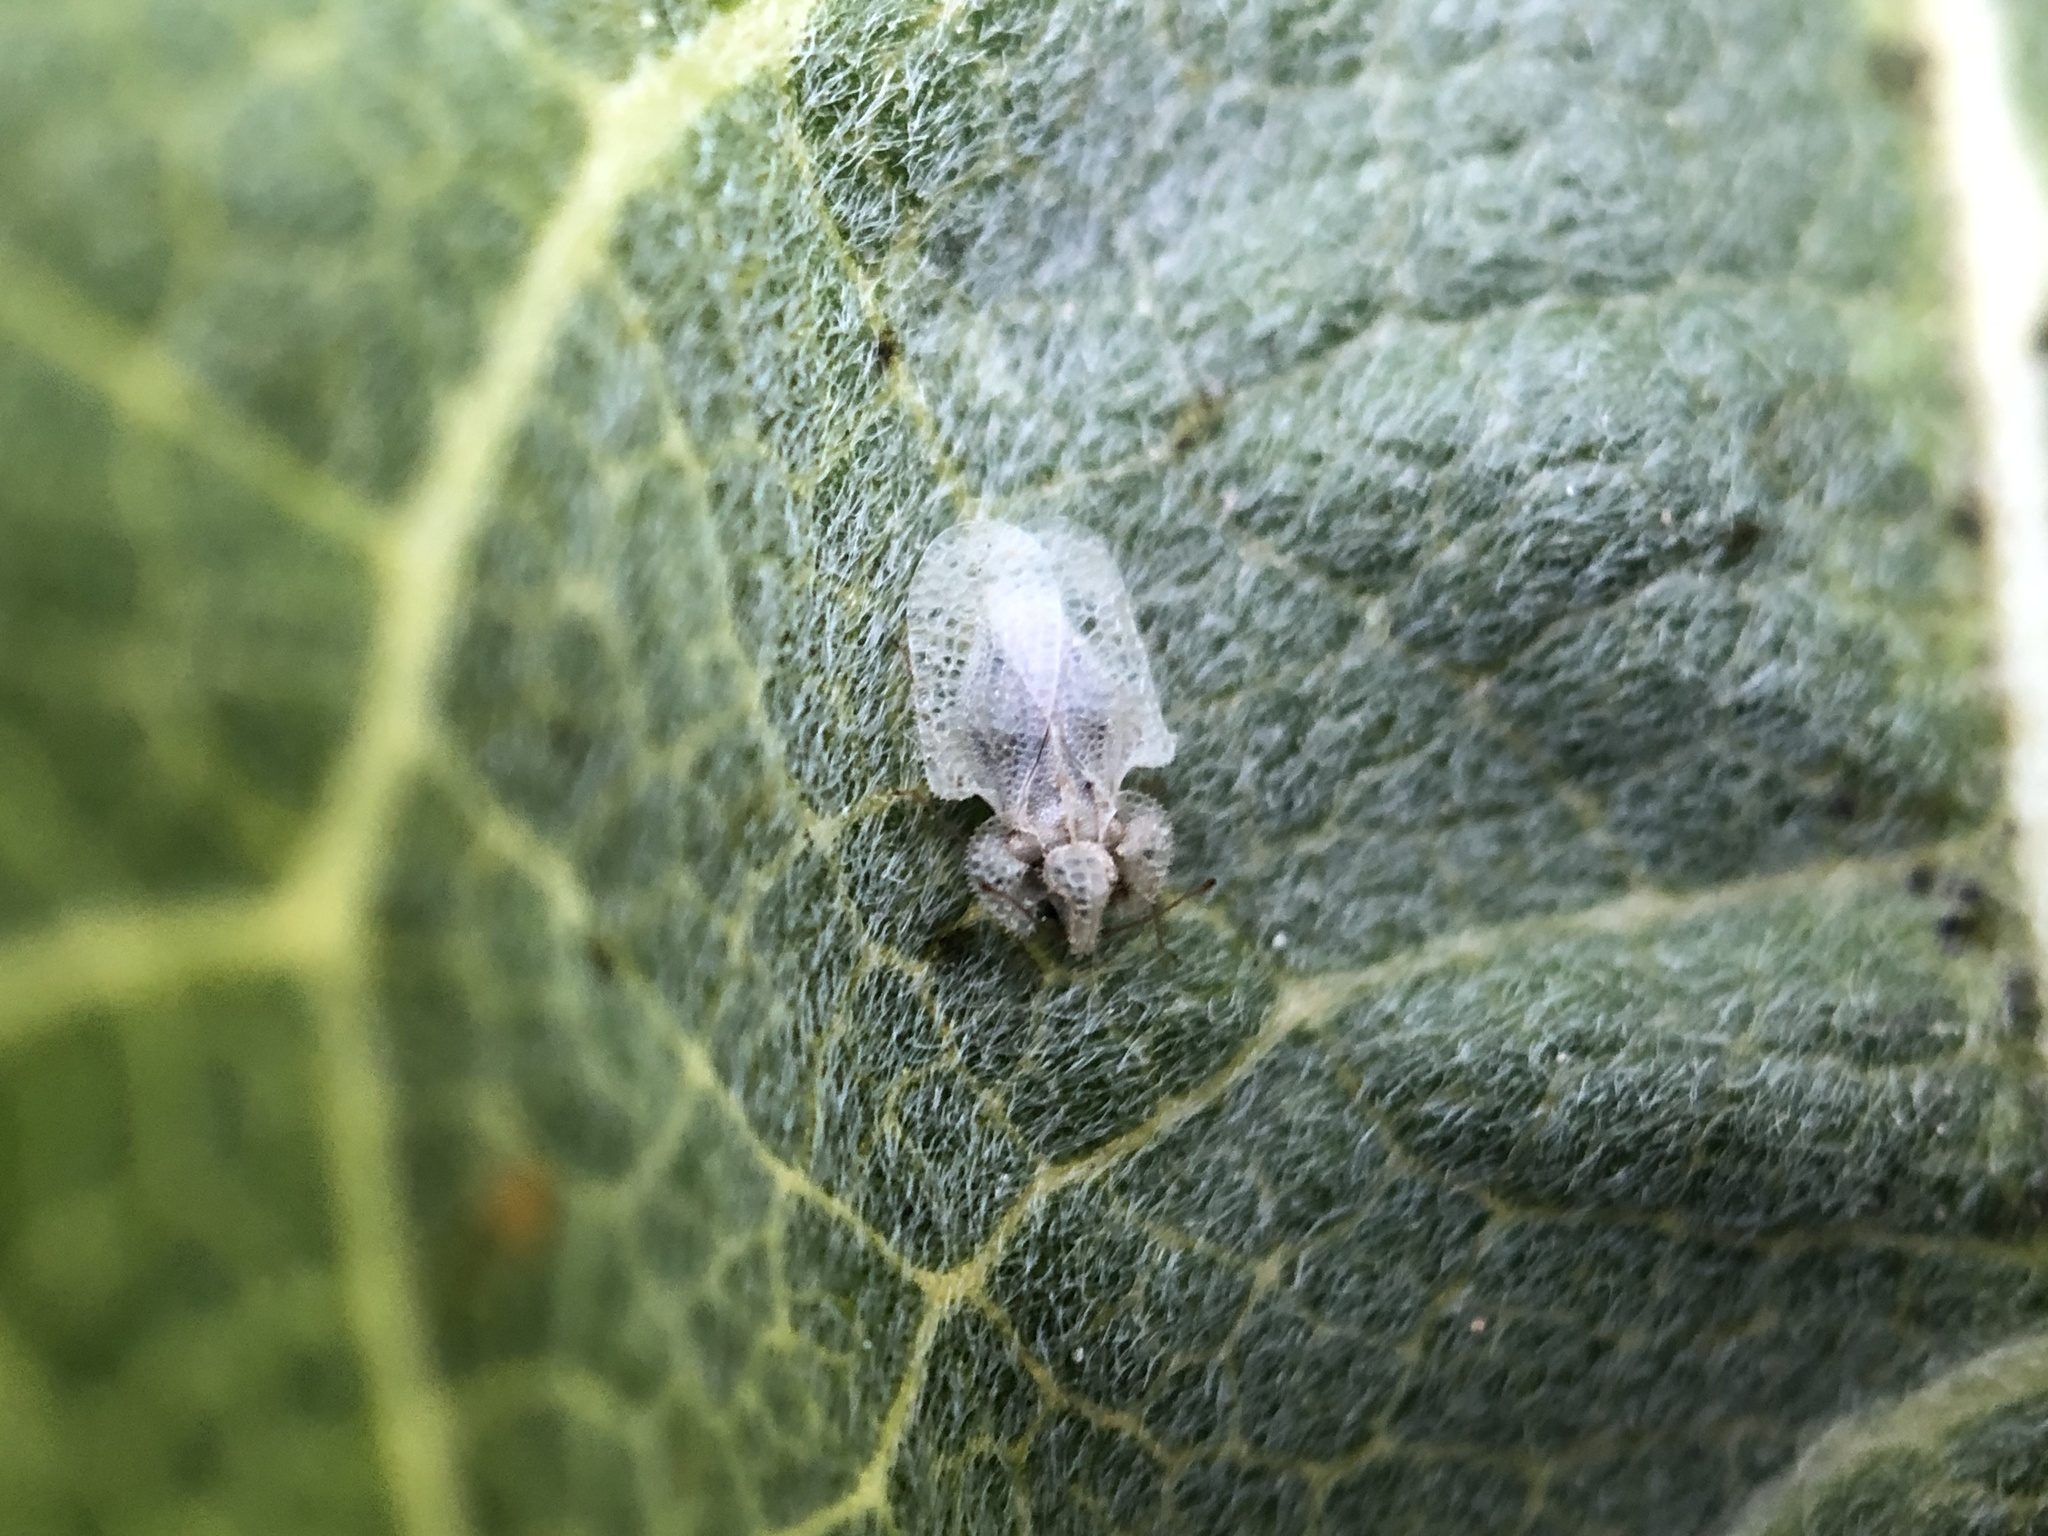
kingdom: Animalia
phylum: Arthropoda
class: Insecta
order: Hemiptera
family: Tingidae
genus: Corythucha
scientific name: Corythucha immaculata
